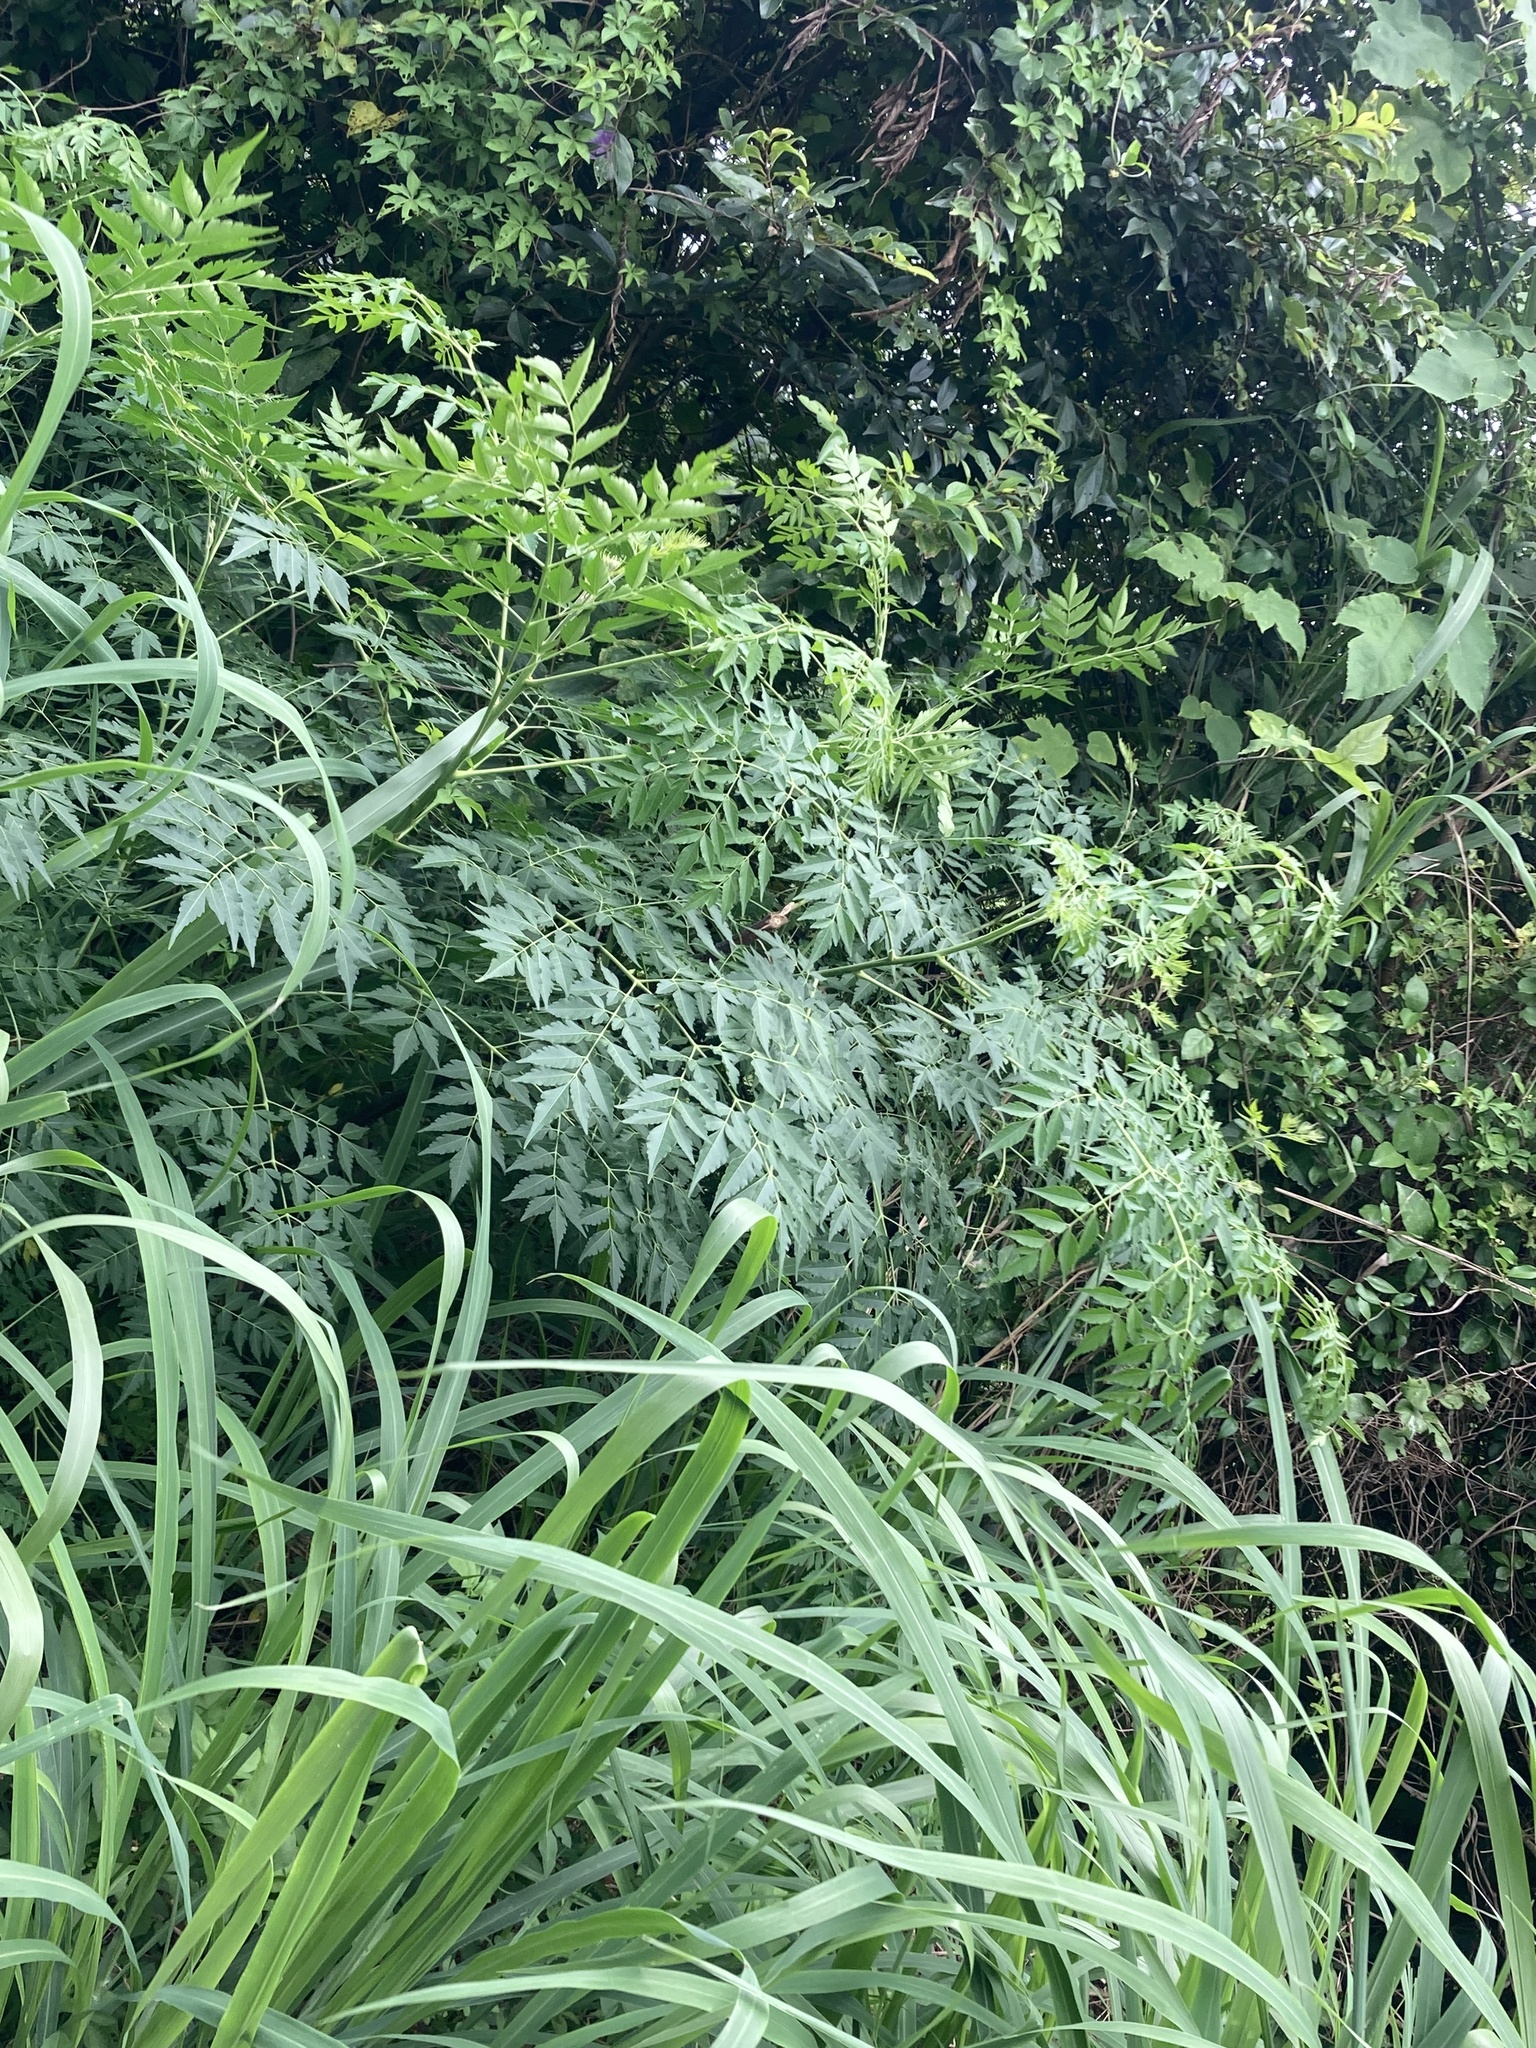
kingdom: Plantae
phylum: Tracheophyta
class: Magnoliopsida
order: Sapindales
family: Meliaceae
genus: Melia
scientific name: Melia azedarach
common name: Chinaberrytree
